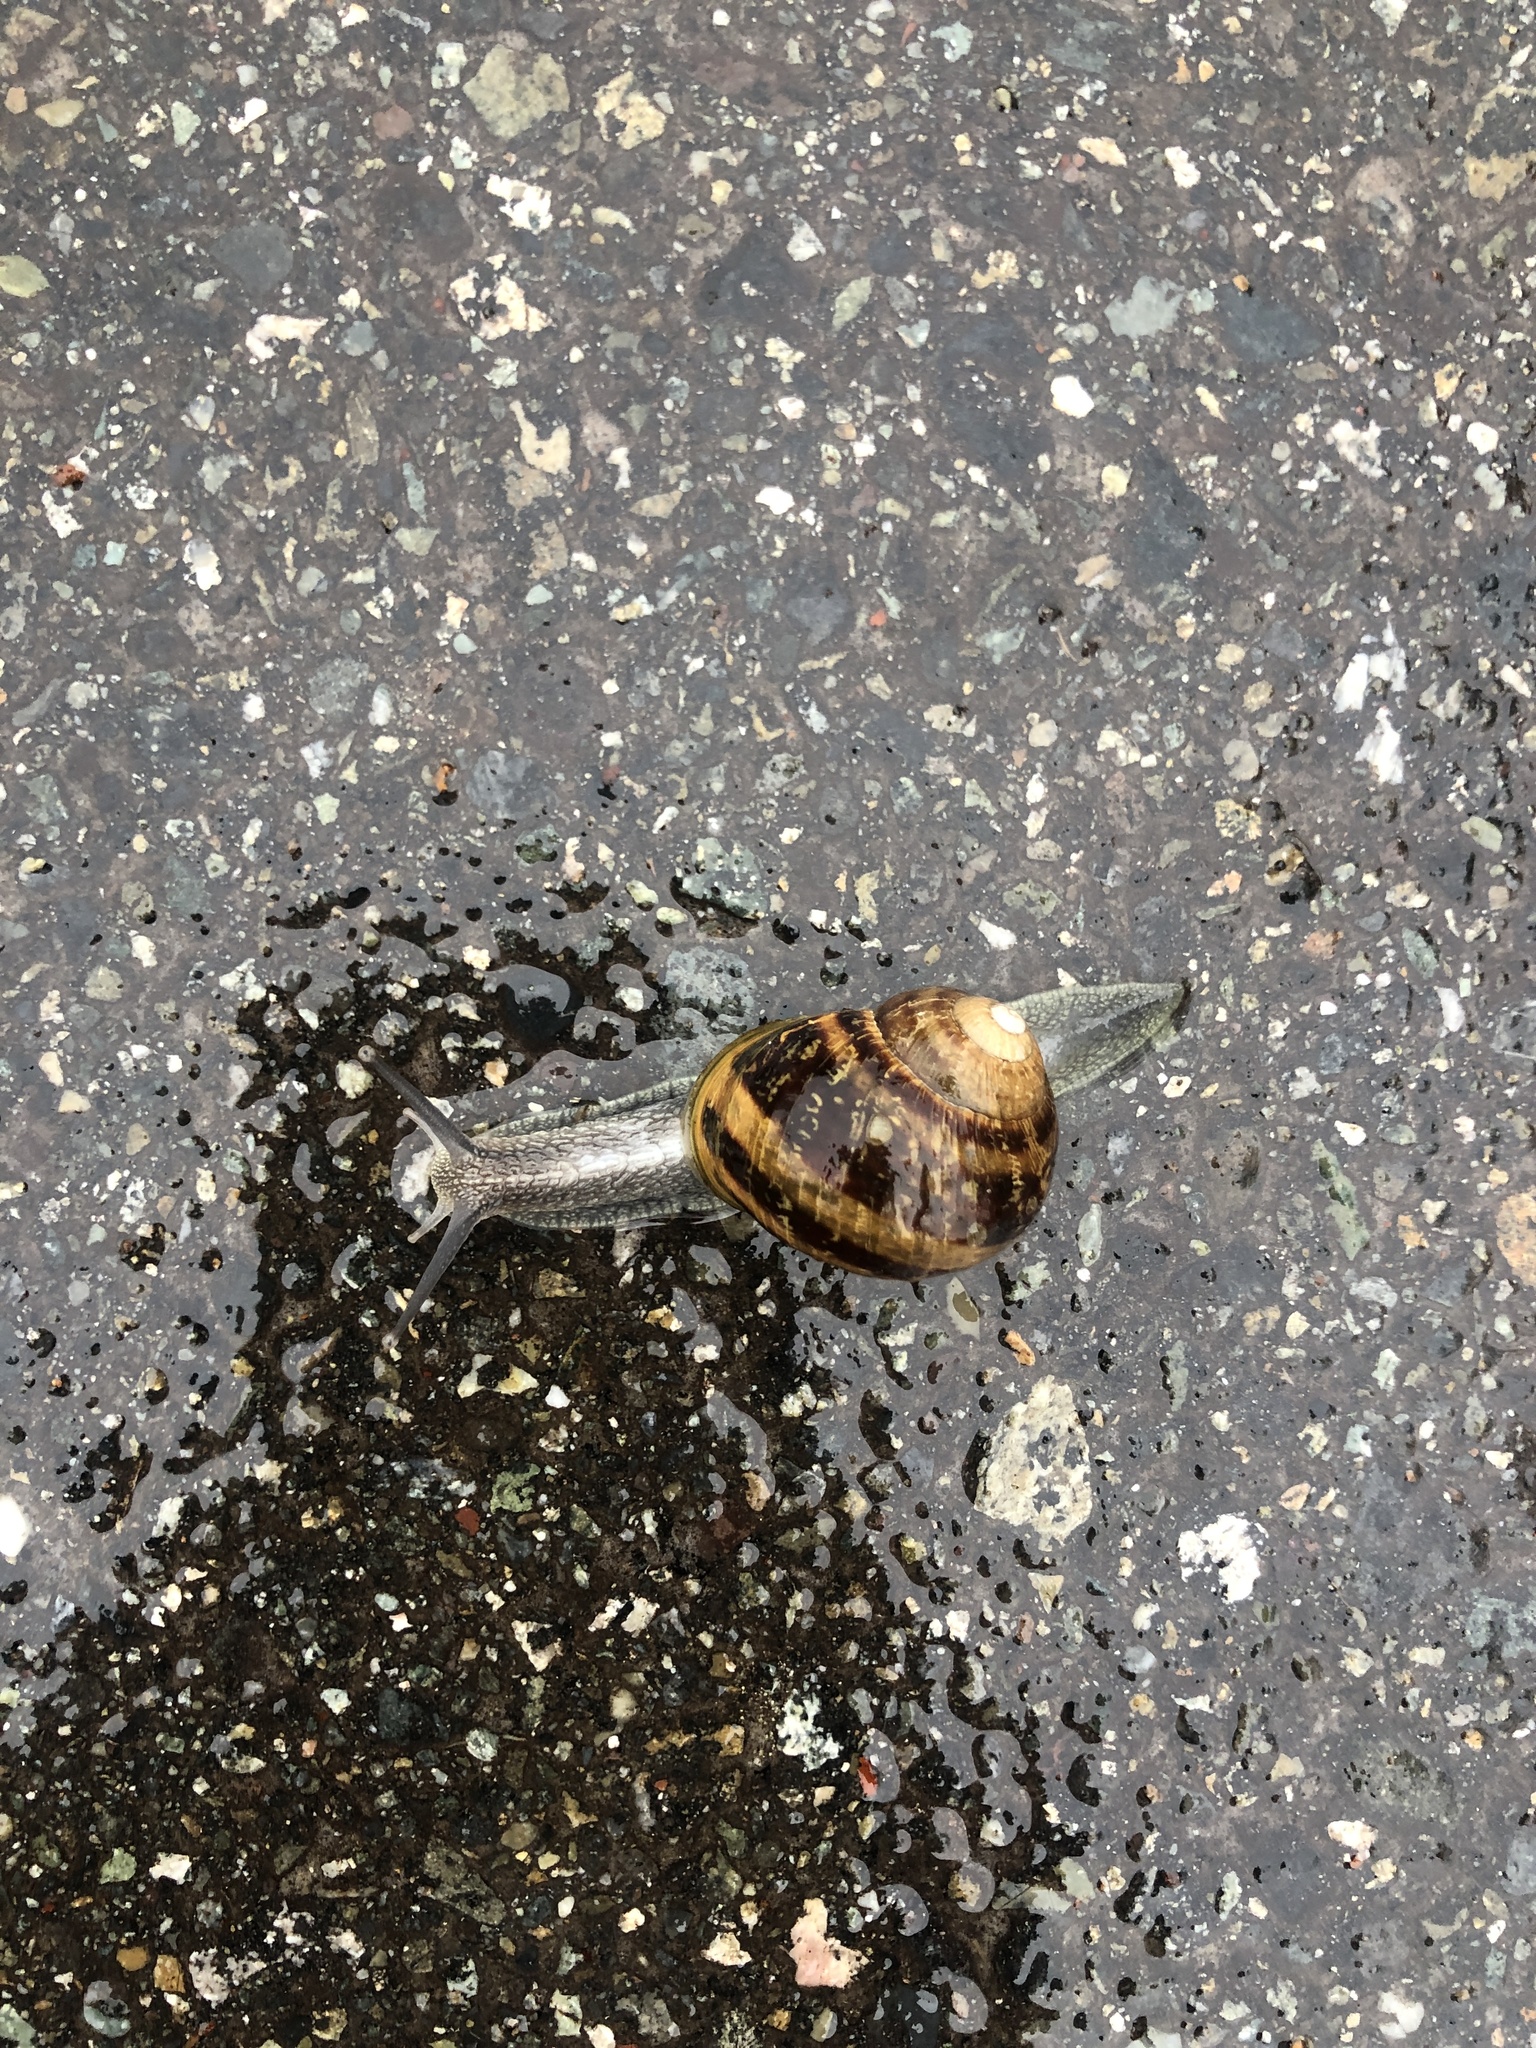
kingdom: Animalia
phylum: Mollusca
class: Gastropoda
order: Stylommatophora
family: Helicidae
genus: Cornu
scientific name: Cornu aspersum
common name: Brown garden snail
